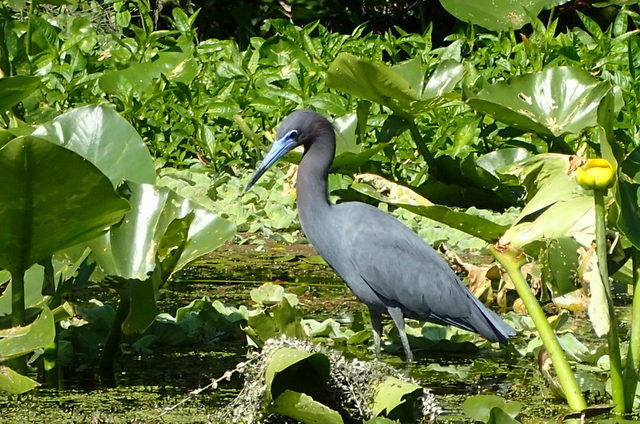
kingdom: Animalia
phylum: Chordata
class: Aves
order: Pelecaniformes
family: Ardeidae
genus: Egretta
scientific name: Egretta caerulea
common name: Little blue heron
